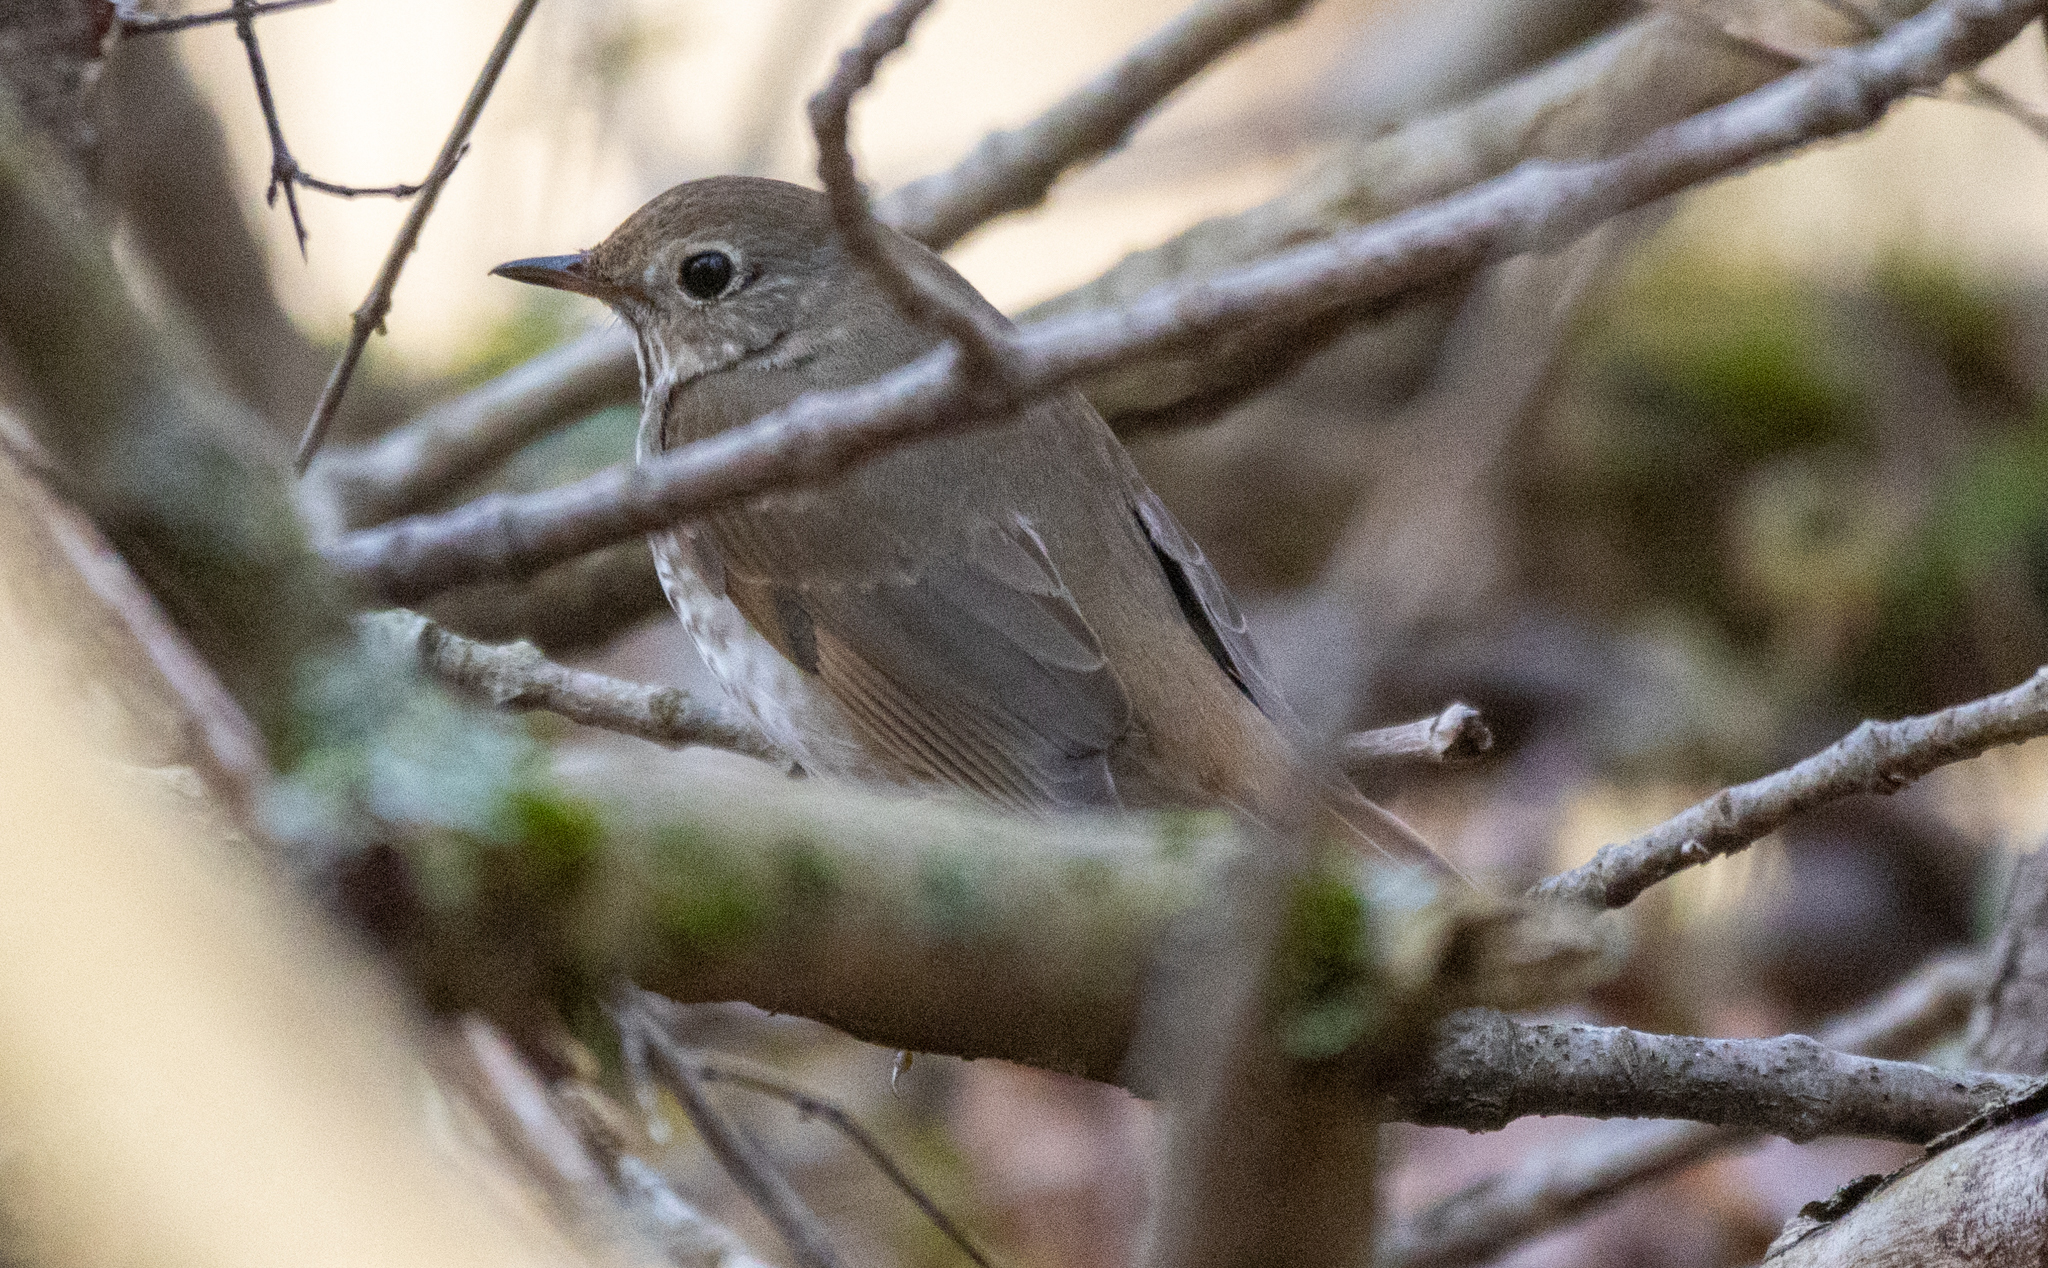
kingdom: Animalia
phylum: Chordata
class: Aves
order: Passeriformes
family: Turdidae
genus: Catharus
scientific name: Catharus guttatus
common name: Hermit thrush
